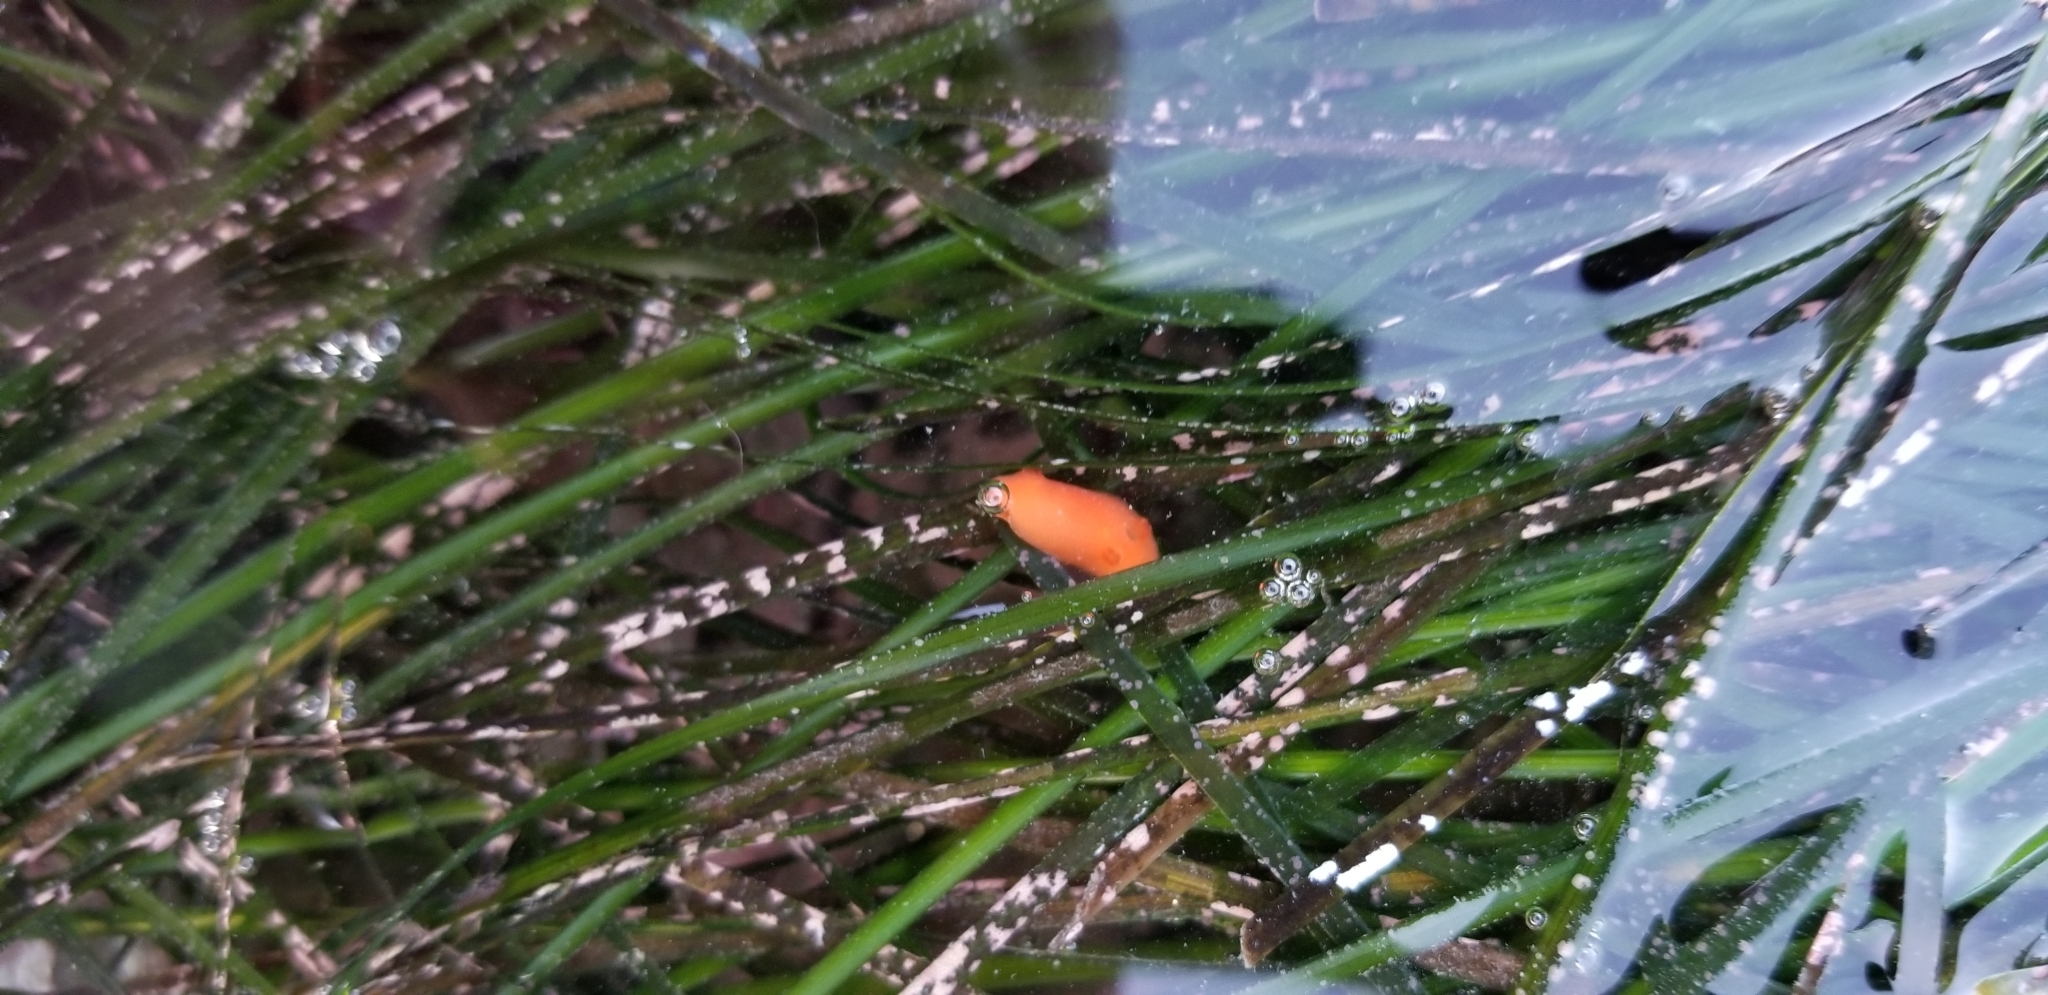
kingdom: Animalia
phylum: Mollusca
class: Gastropoda
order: Nudibranchia
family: Discodorididae
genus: Rostanga
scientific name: Rostanga pulchra
